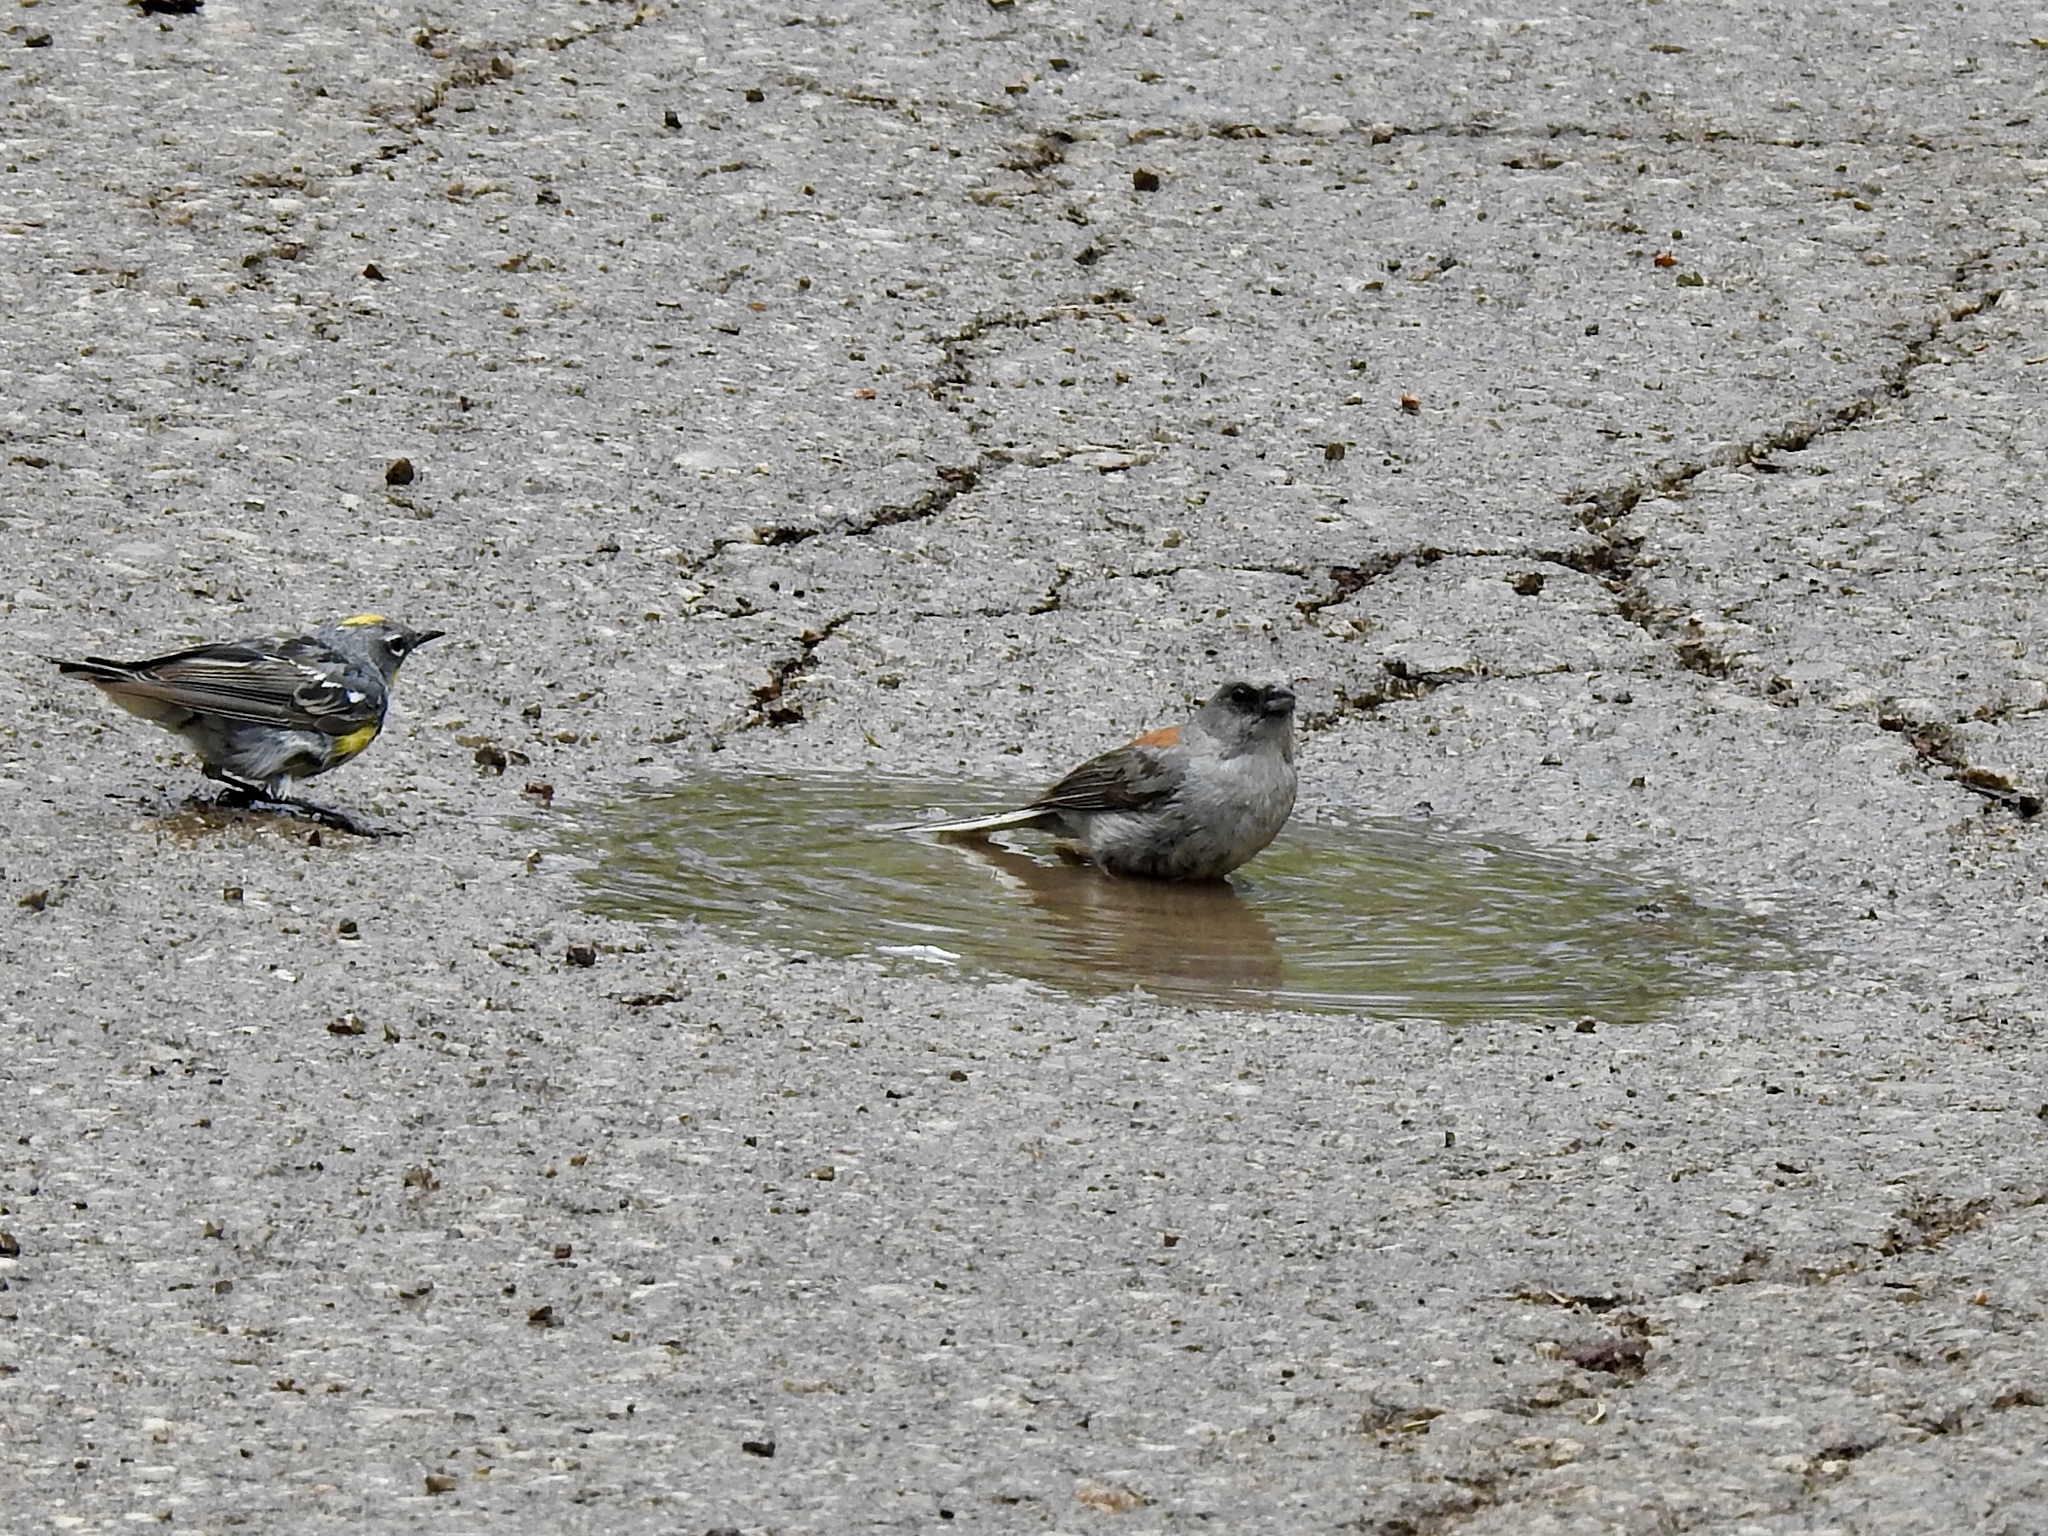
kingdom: Animalia
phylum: Chordata
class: Aves
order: Passeriformes
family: Passerellidae
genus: Junco
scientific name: Junco hyemalis
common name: Dark-eyed junco
